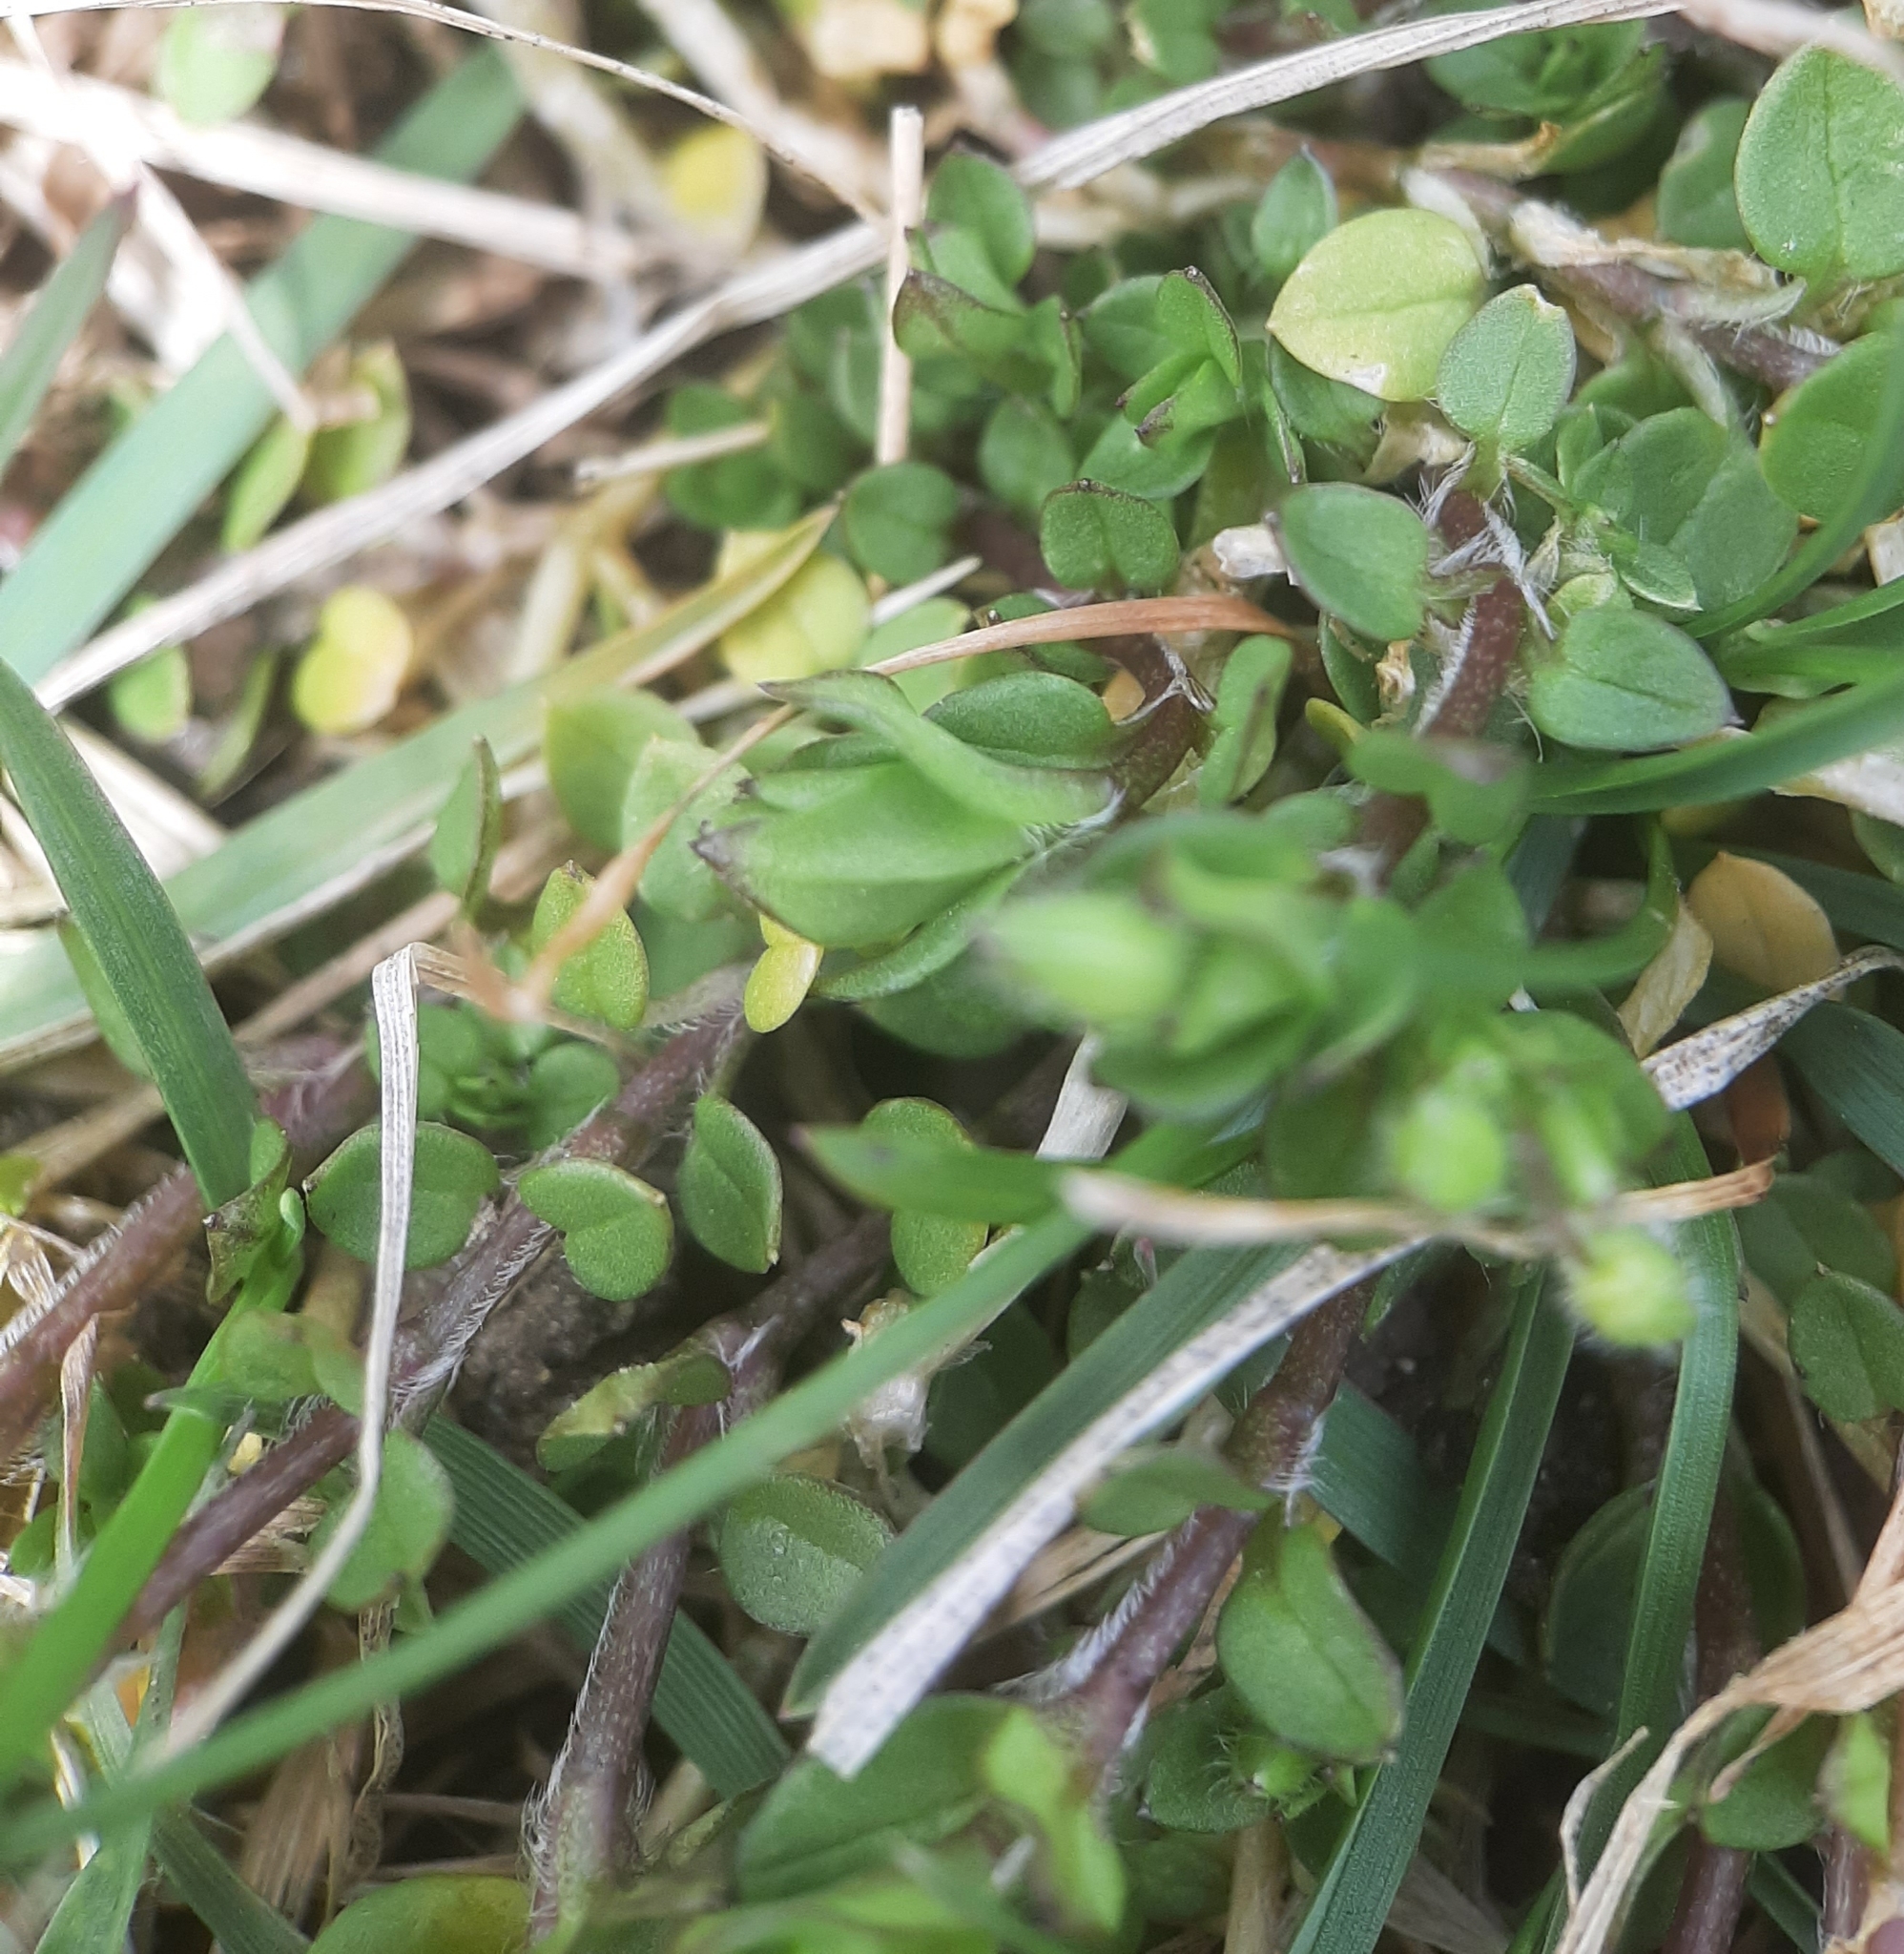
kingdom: Plantae
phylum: Tracheophyta
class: Magnoliopsida
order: Caryophyllales
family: Caryophyllaceae
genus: Stellaria
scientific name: Stellaria media
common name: Common chickweed
